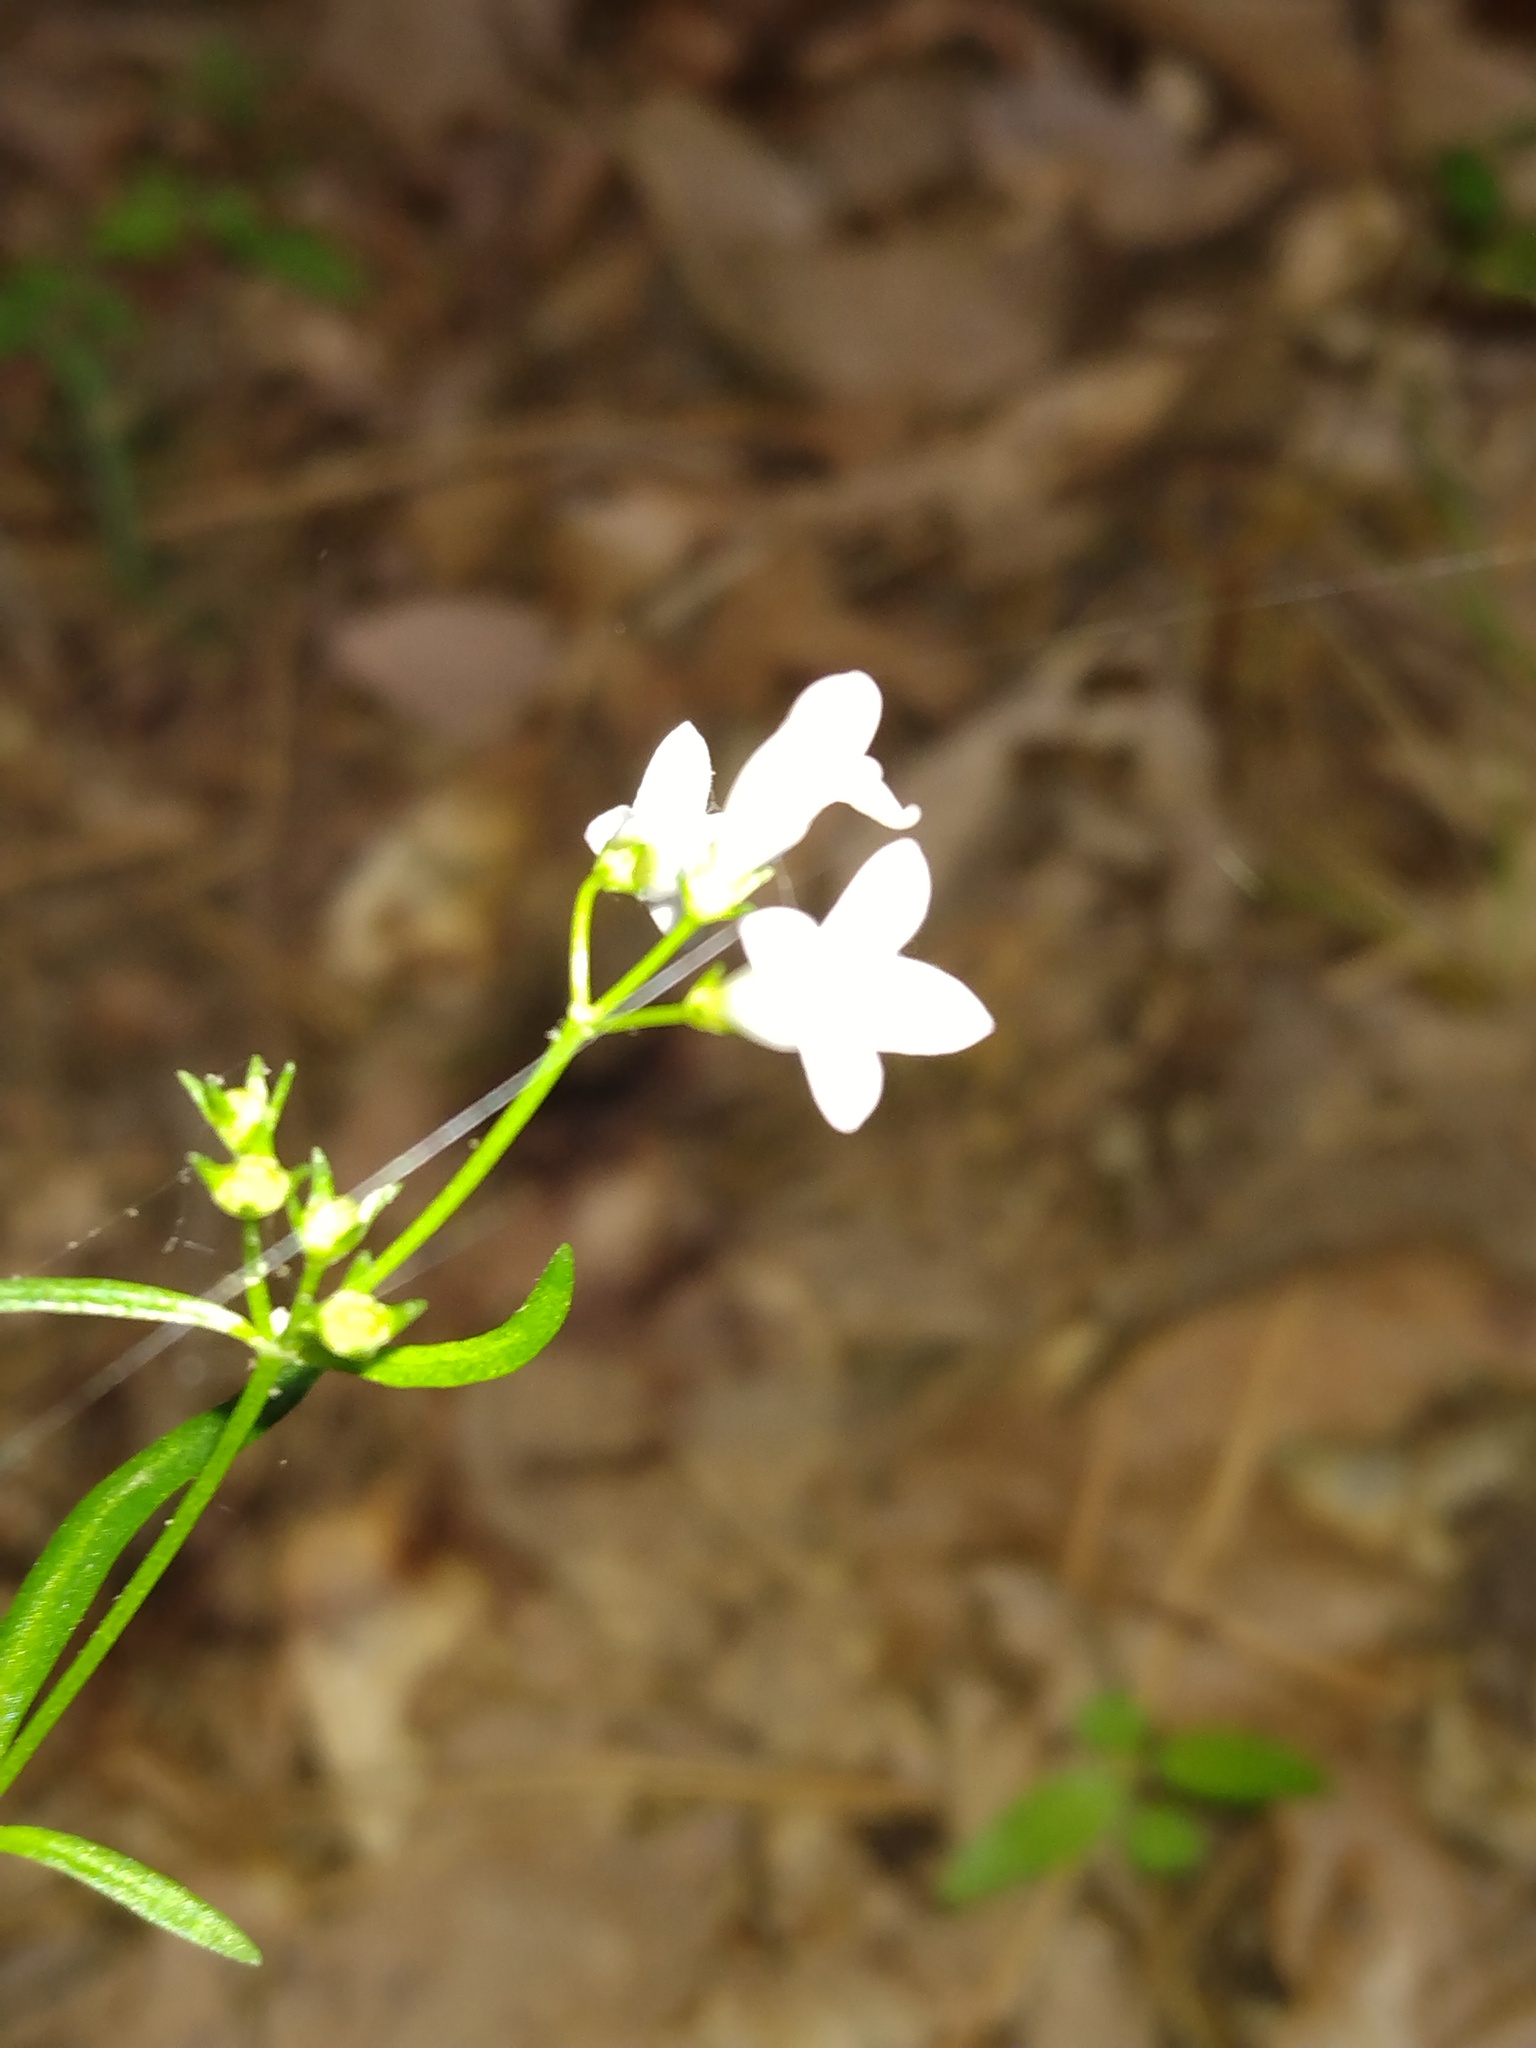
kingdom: Plantae
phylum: Tracheophyta
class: Magnoliopsida
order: Gentianales
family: Rubiaceae
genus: Houstonia
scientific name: Houstonia longifolia
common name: Long-leaved bluets
